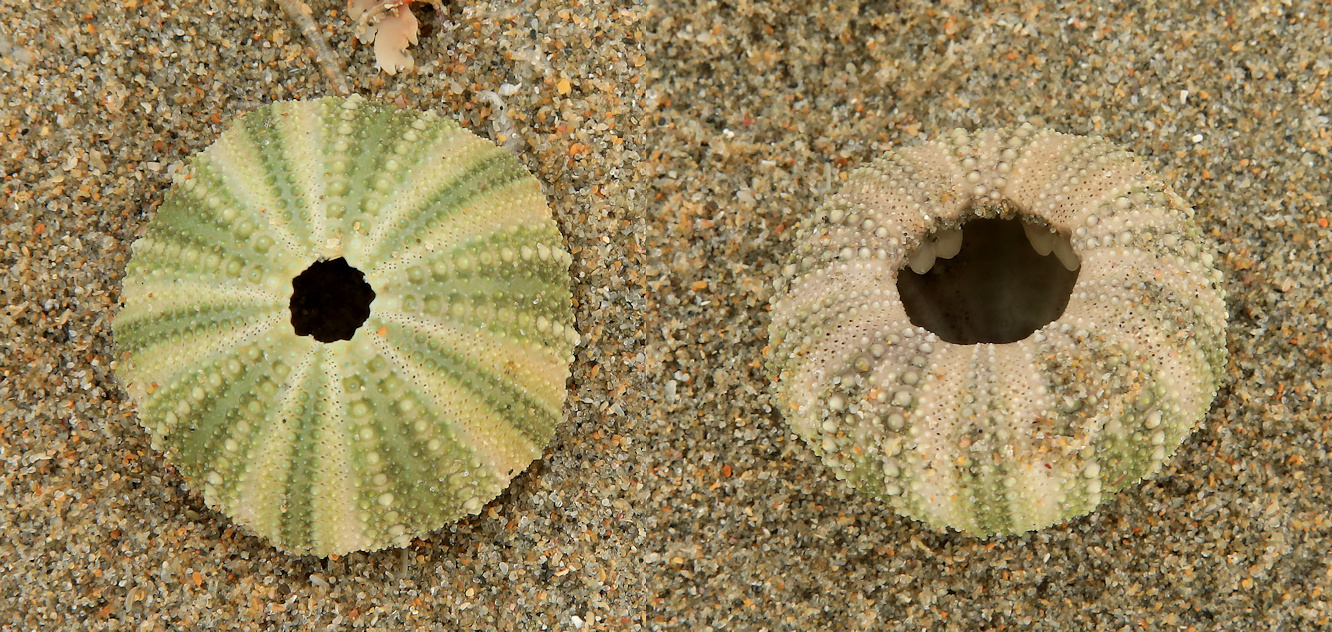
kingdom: Animalia
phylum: Echinodermata
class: Echinoidea
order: Camarodonta
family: Parechinidae
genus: Parechinus
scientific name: Parechinus angulosus
